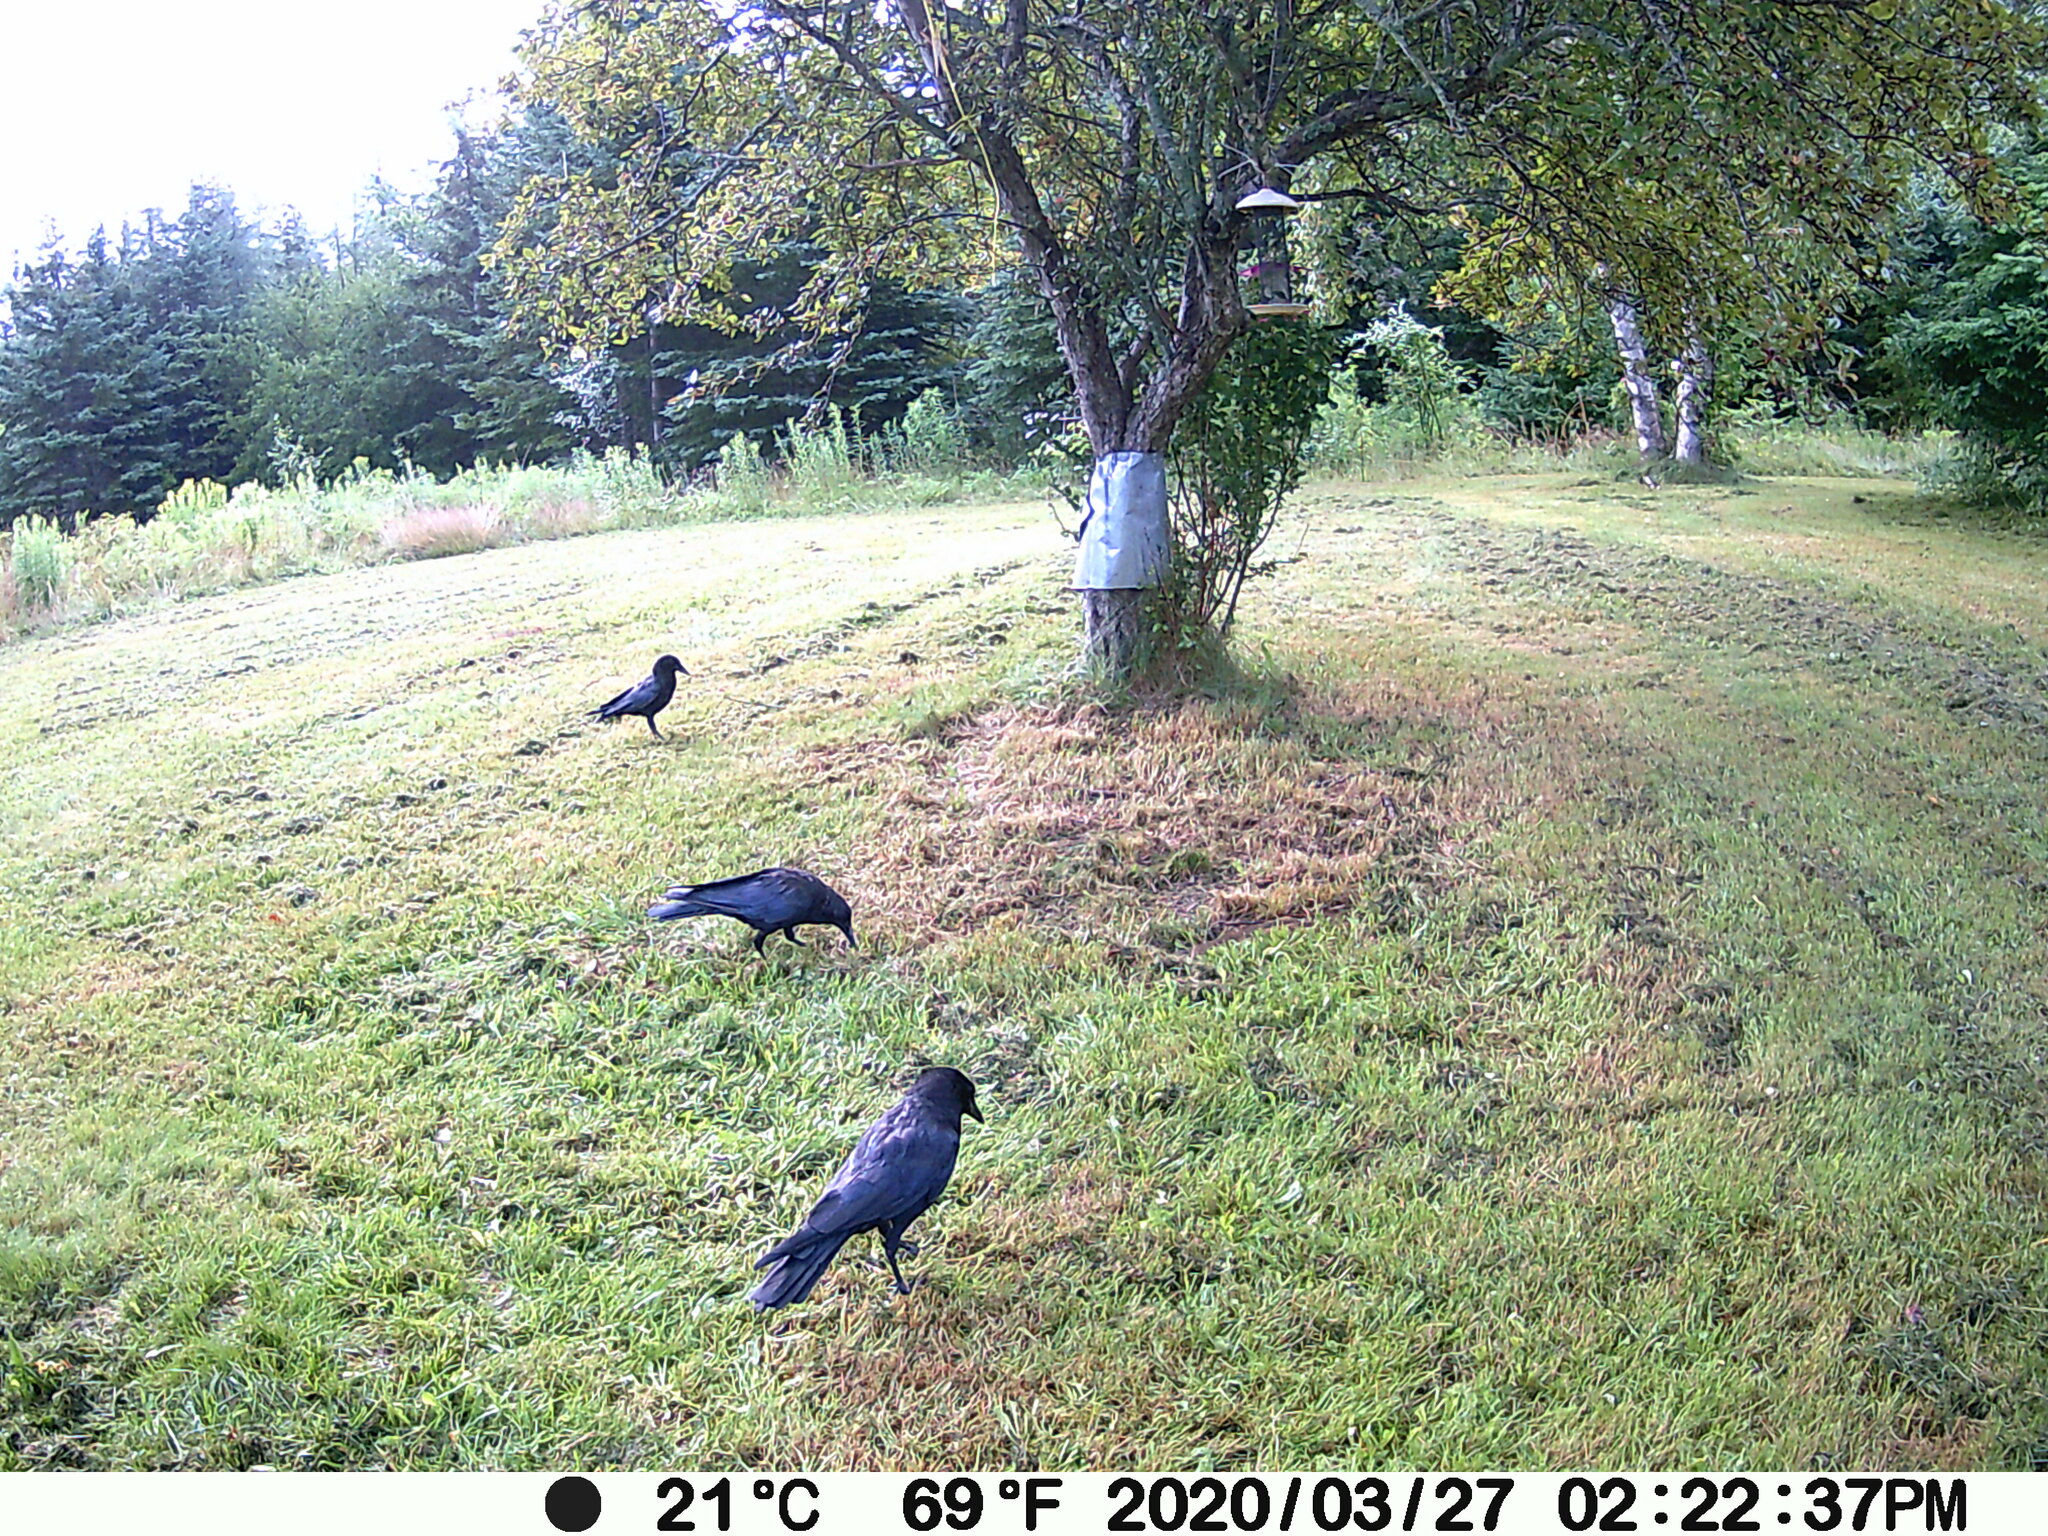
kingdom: Animalia
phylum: Chordata
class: Aves
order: Passeriformes
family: Corvidae
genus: Corvus
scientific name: Corvus brachyrhynchos
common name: American crow
